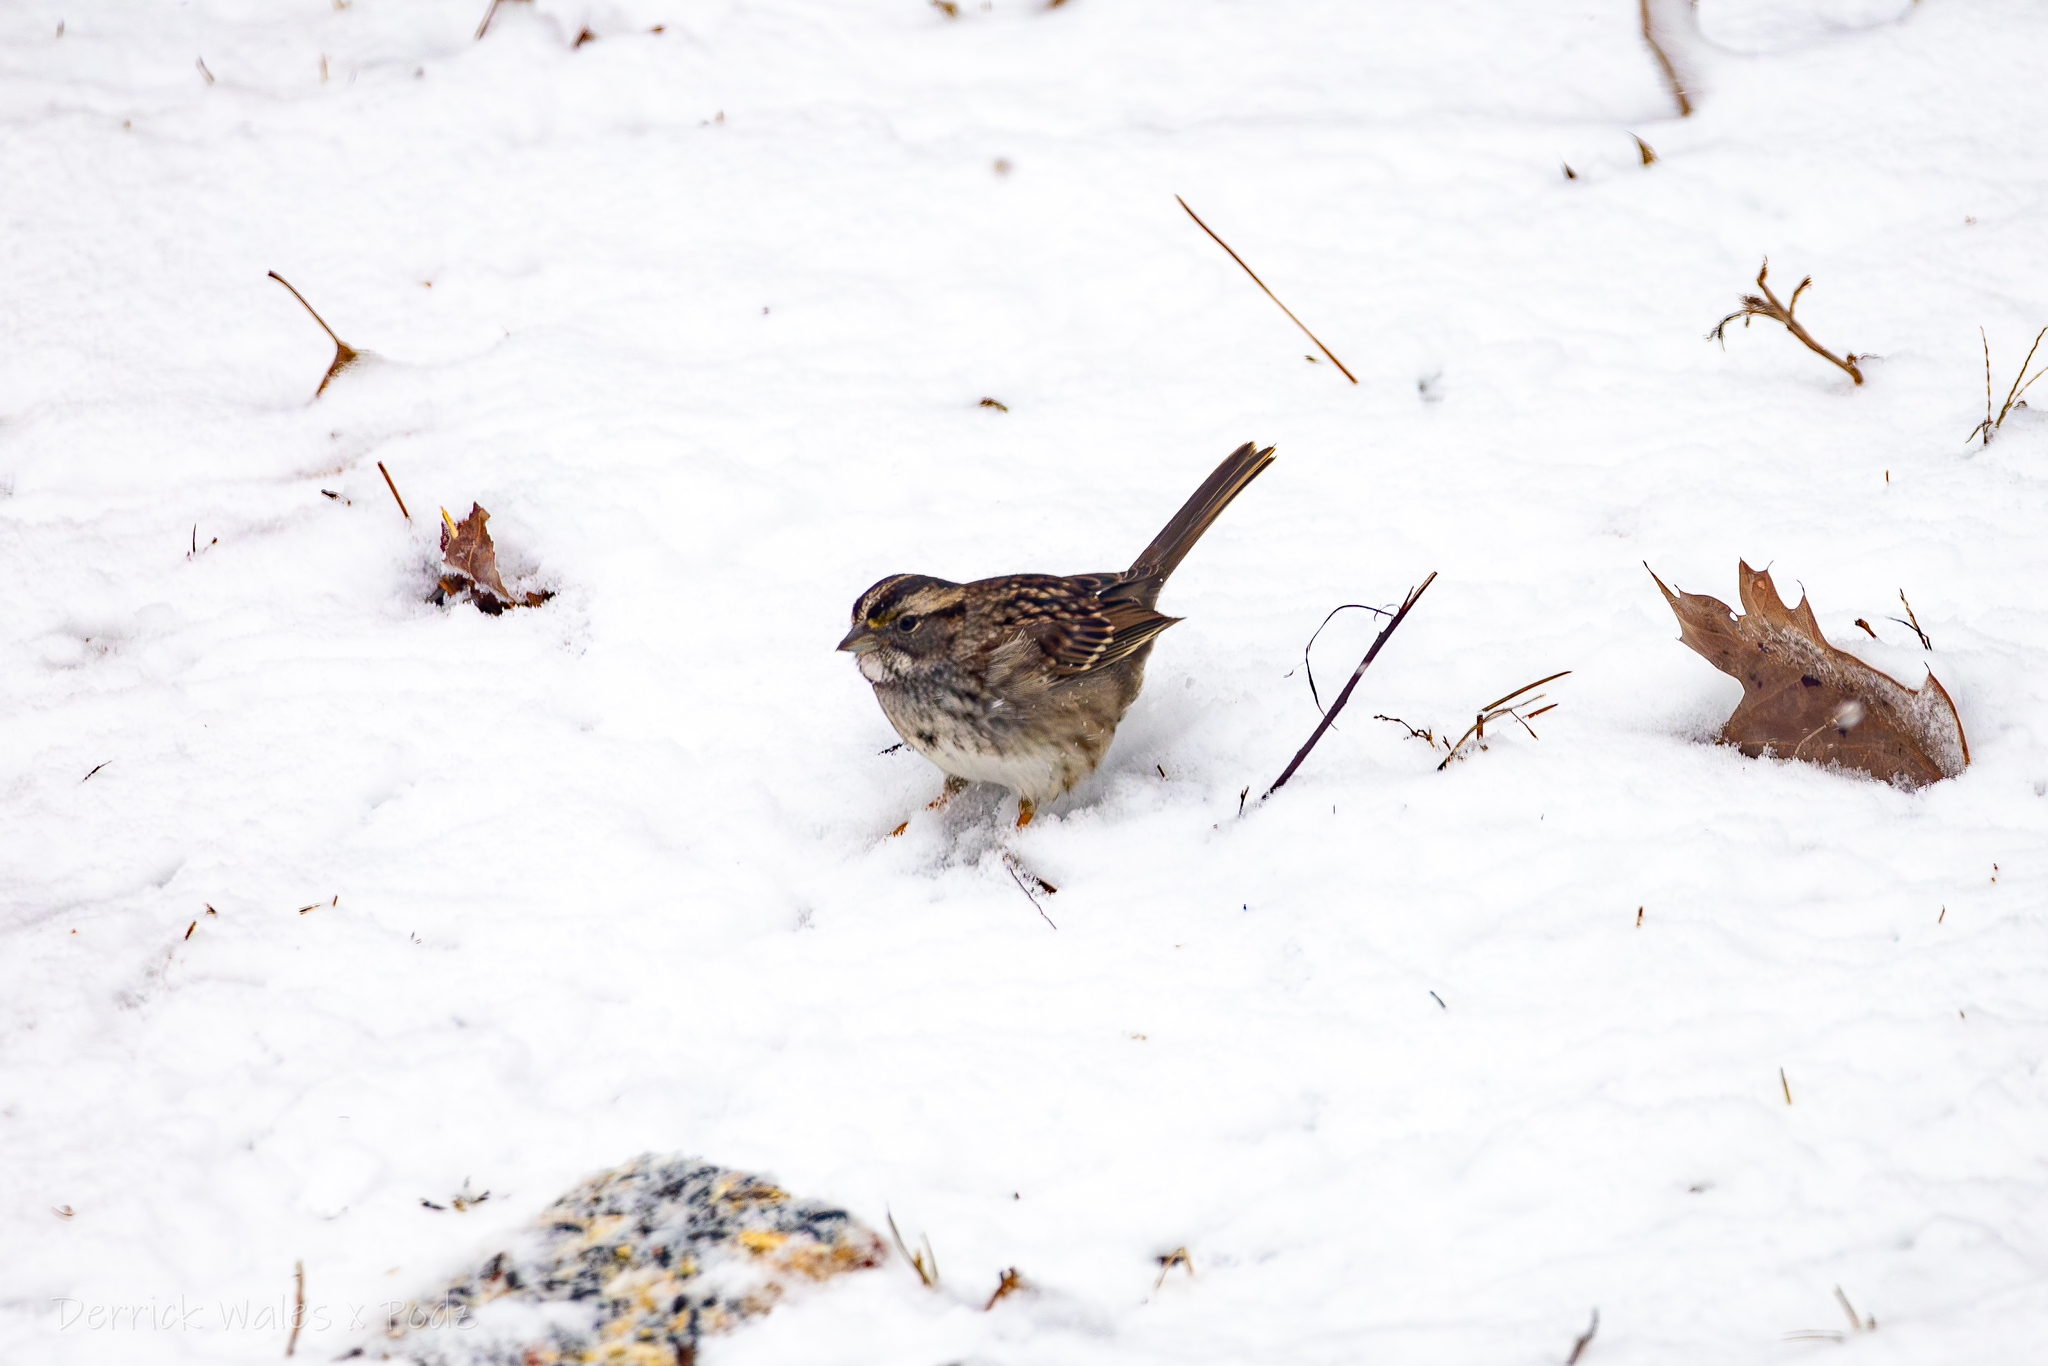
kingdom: Animalia
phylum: Chordata
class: Aves
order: Passeriformes
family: Passerellidae
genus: Zonotrichia
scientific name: Zonotrichia albicollis
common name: White-throated sparrow
